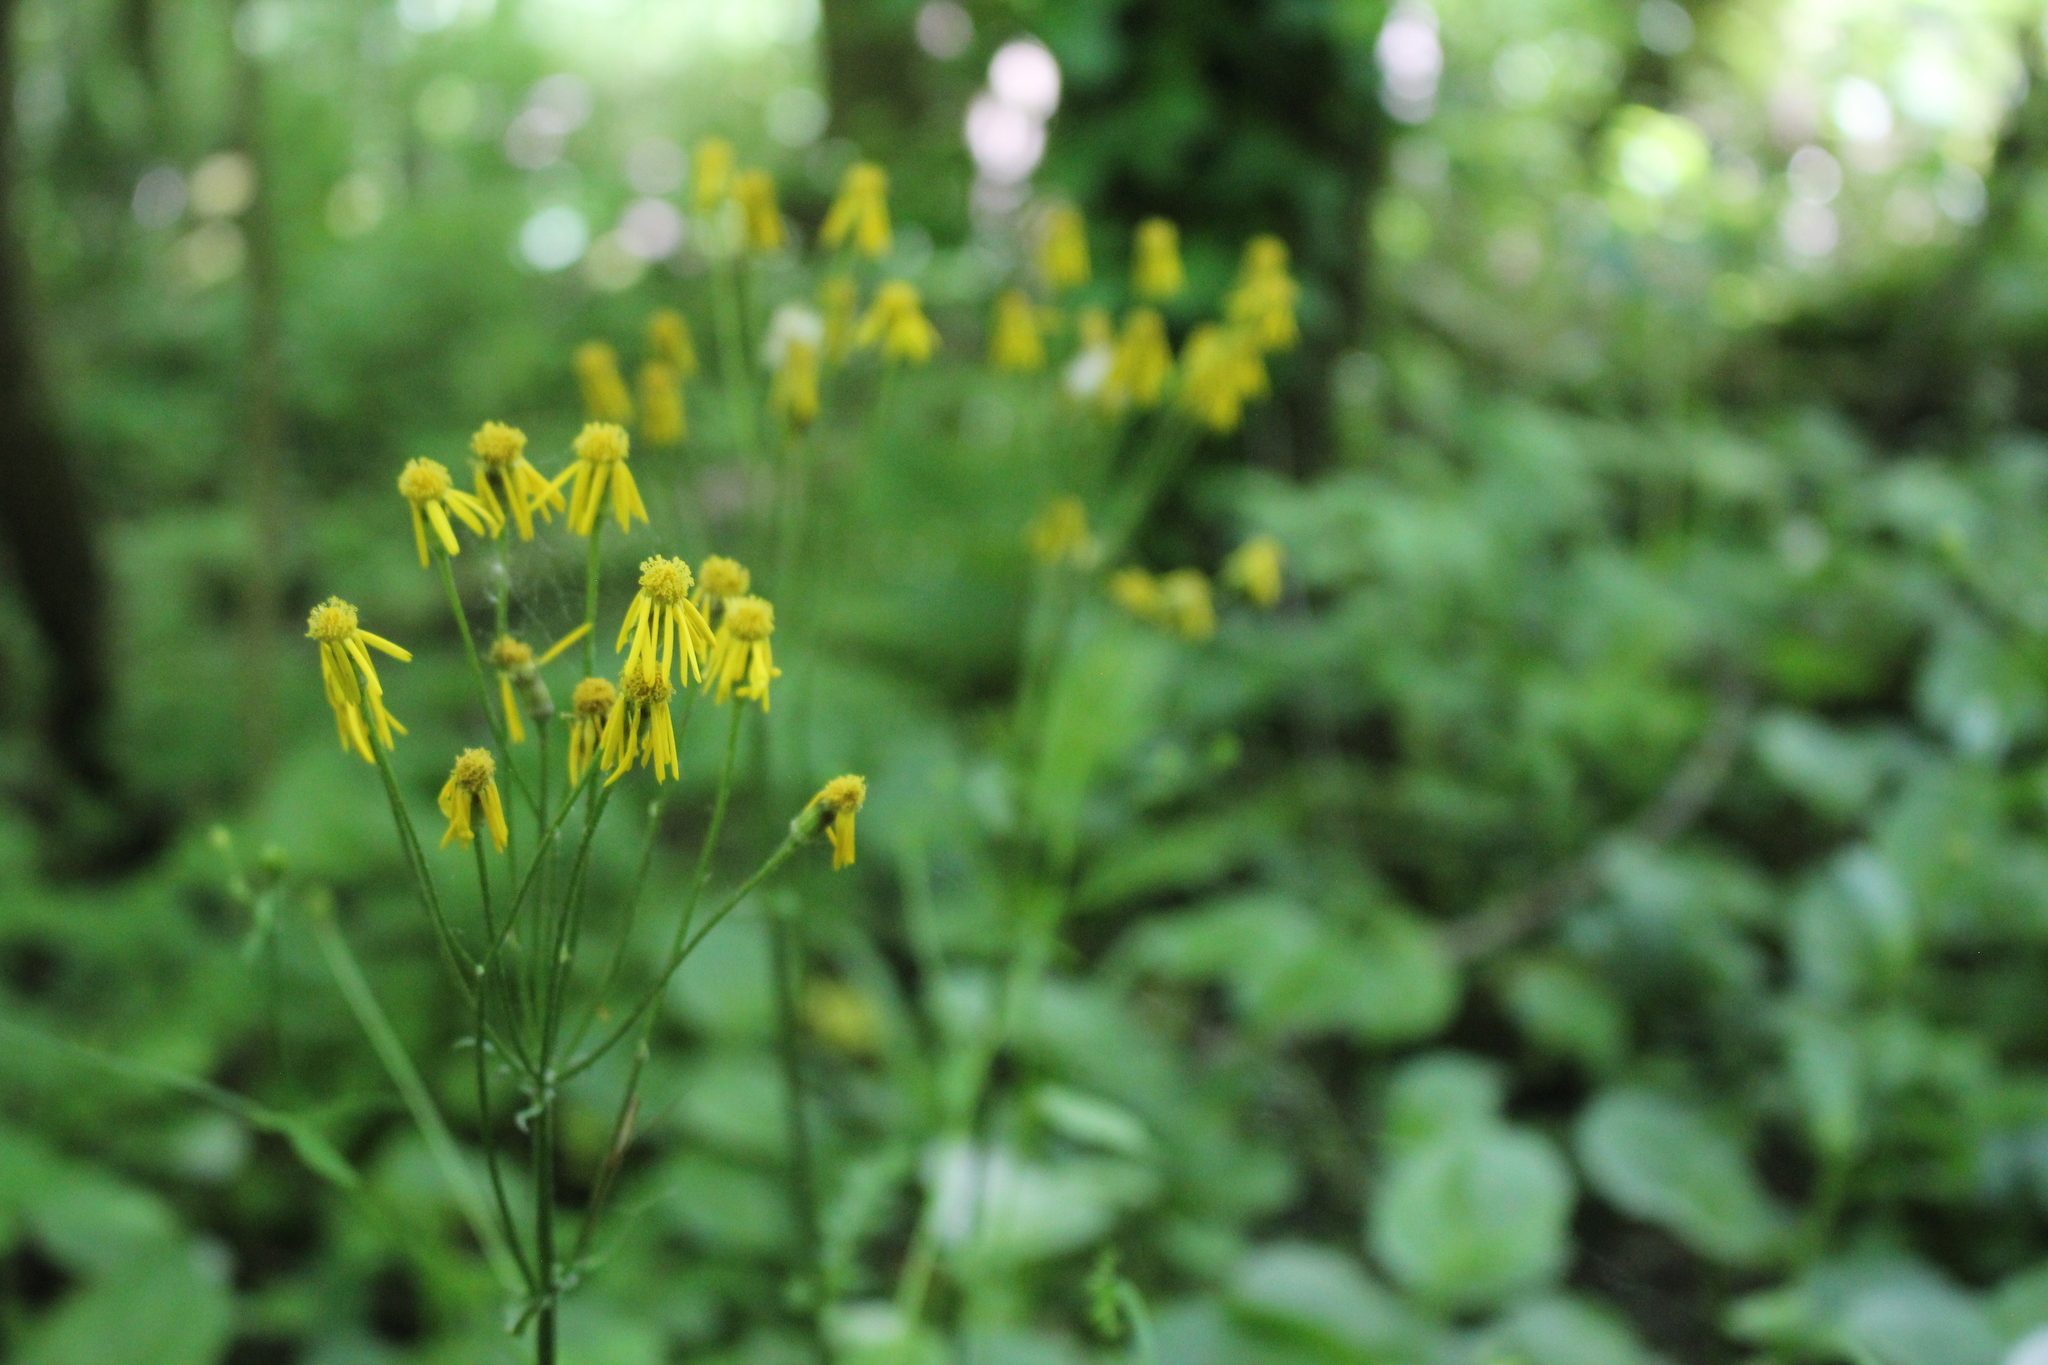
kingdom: Plantae
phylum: Tracheophyta
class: Magnoliopsida
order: Asterales
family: Asteraceae
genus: Packera
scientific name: Packera aurea
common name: Golden groundsel
